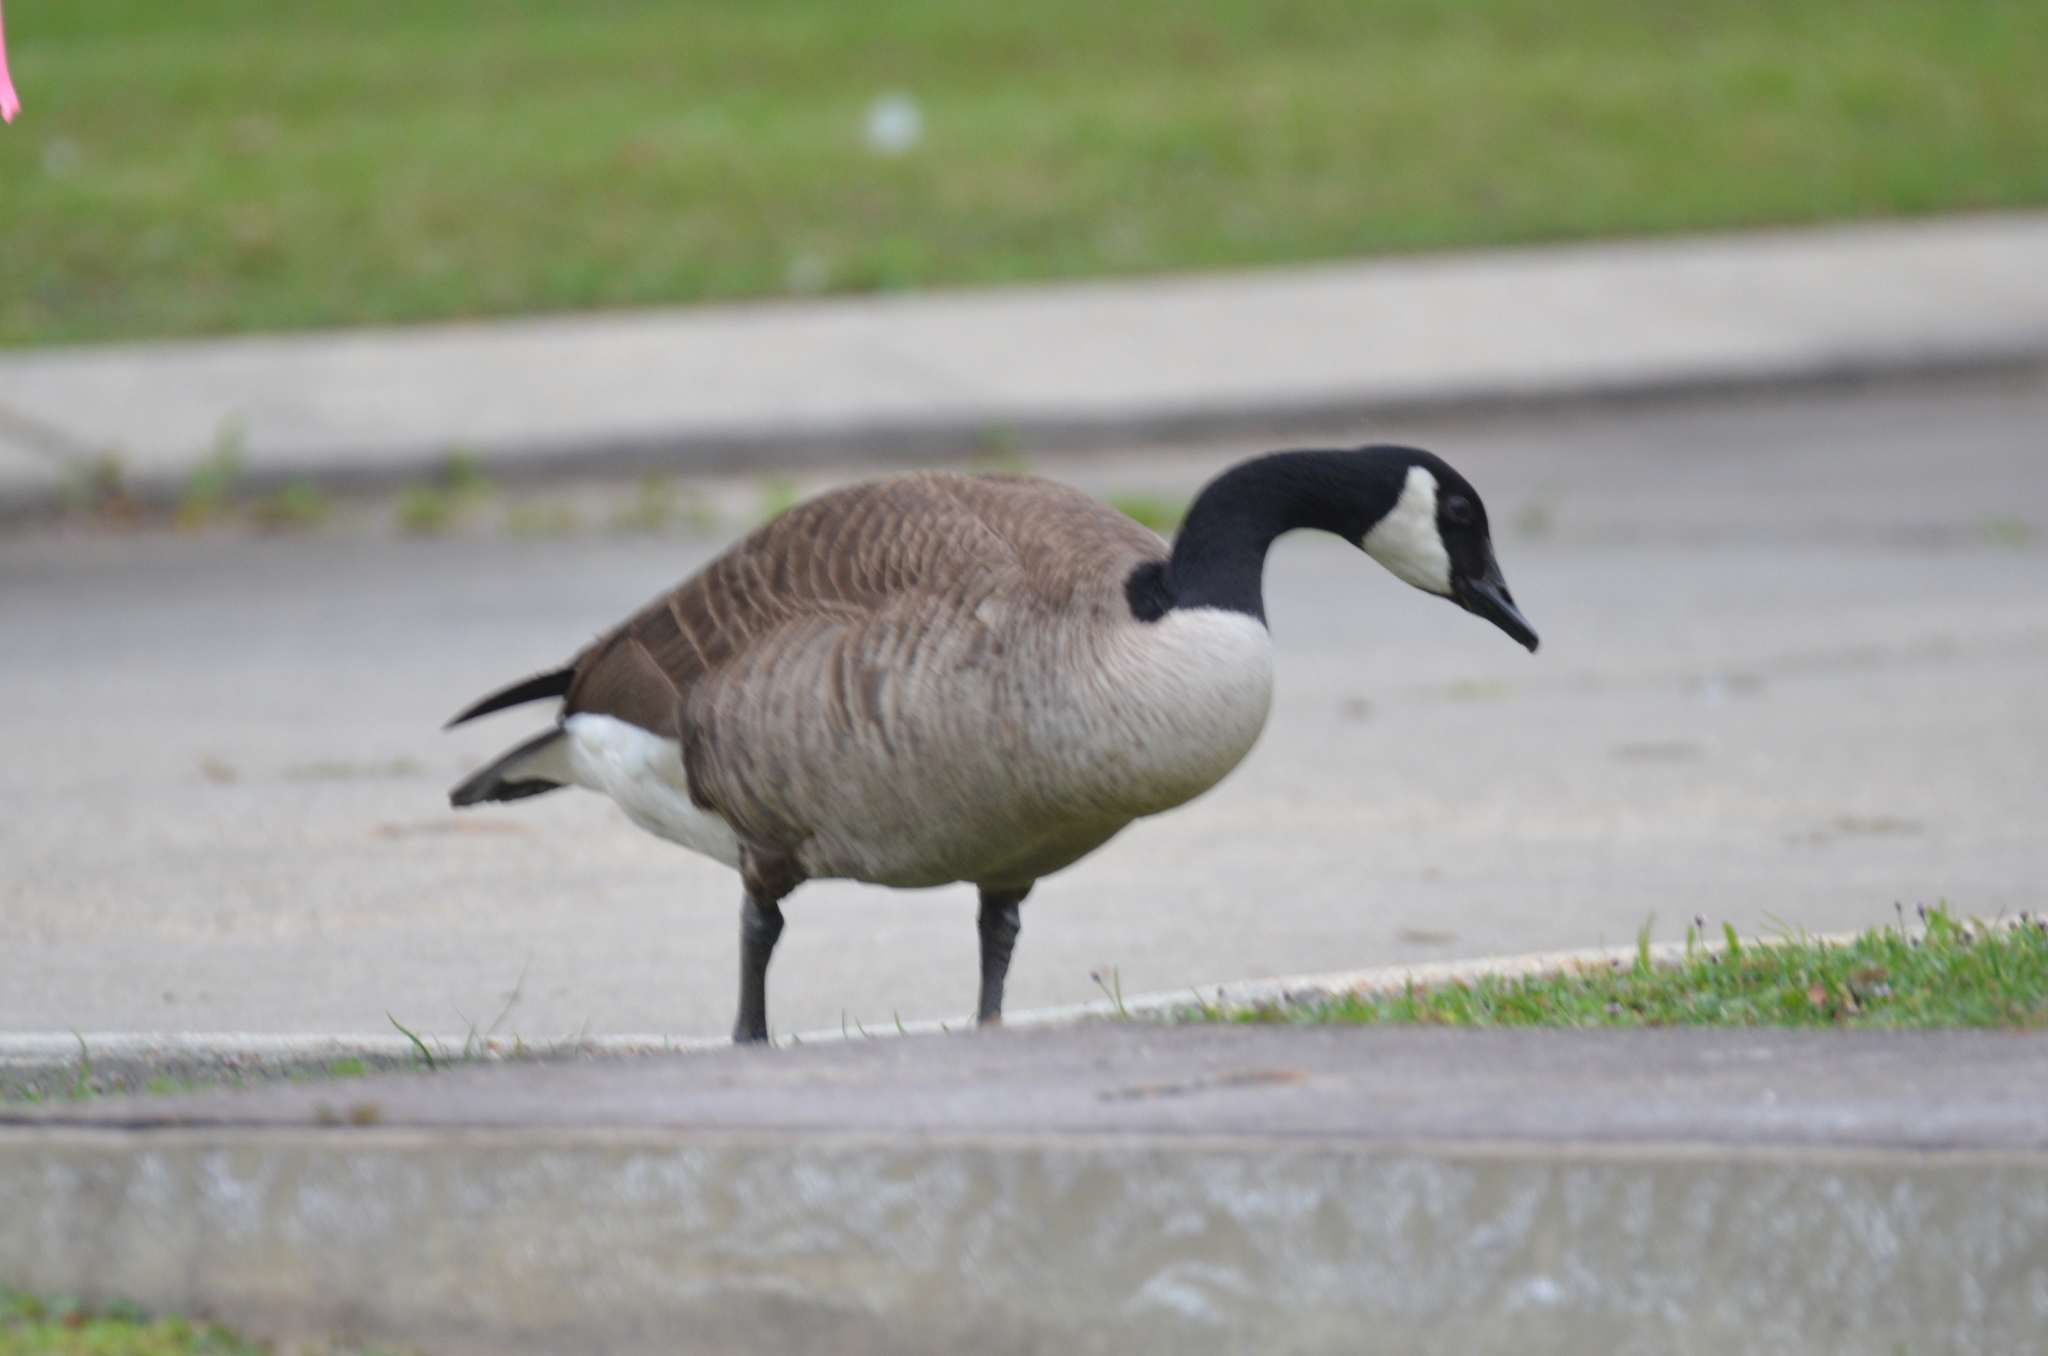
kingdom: Animalia
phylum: Chordata
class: Aves
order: Anseriformes
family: Anatidae
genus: Branta
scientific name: Branta canadensis
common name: Canada goose
